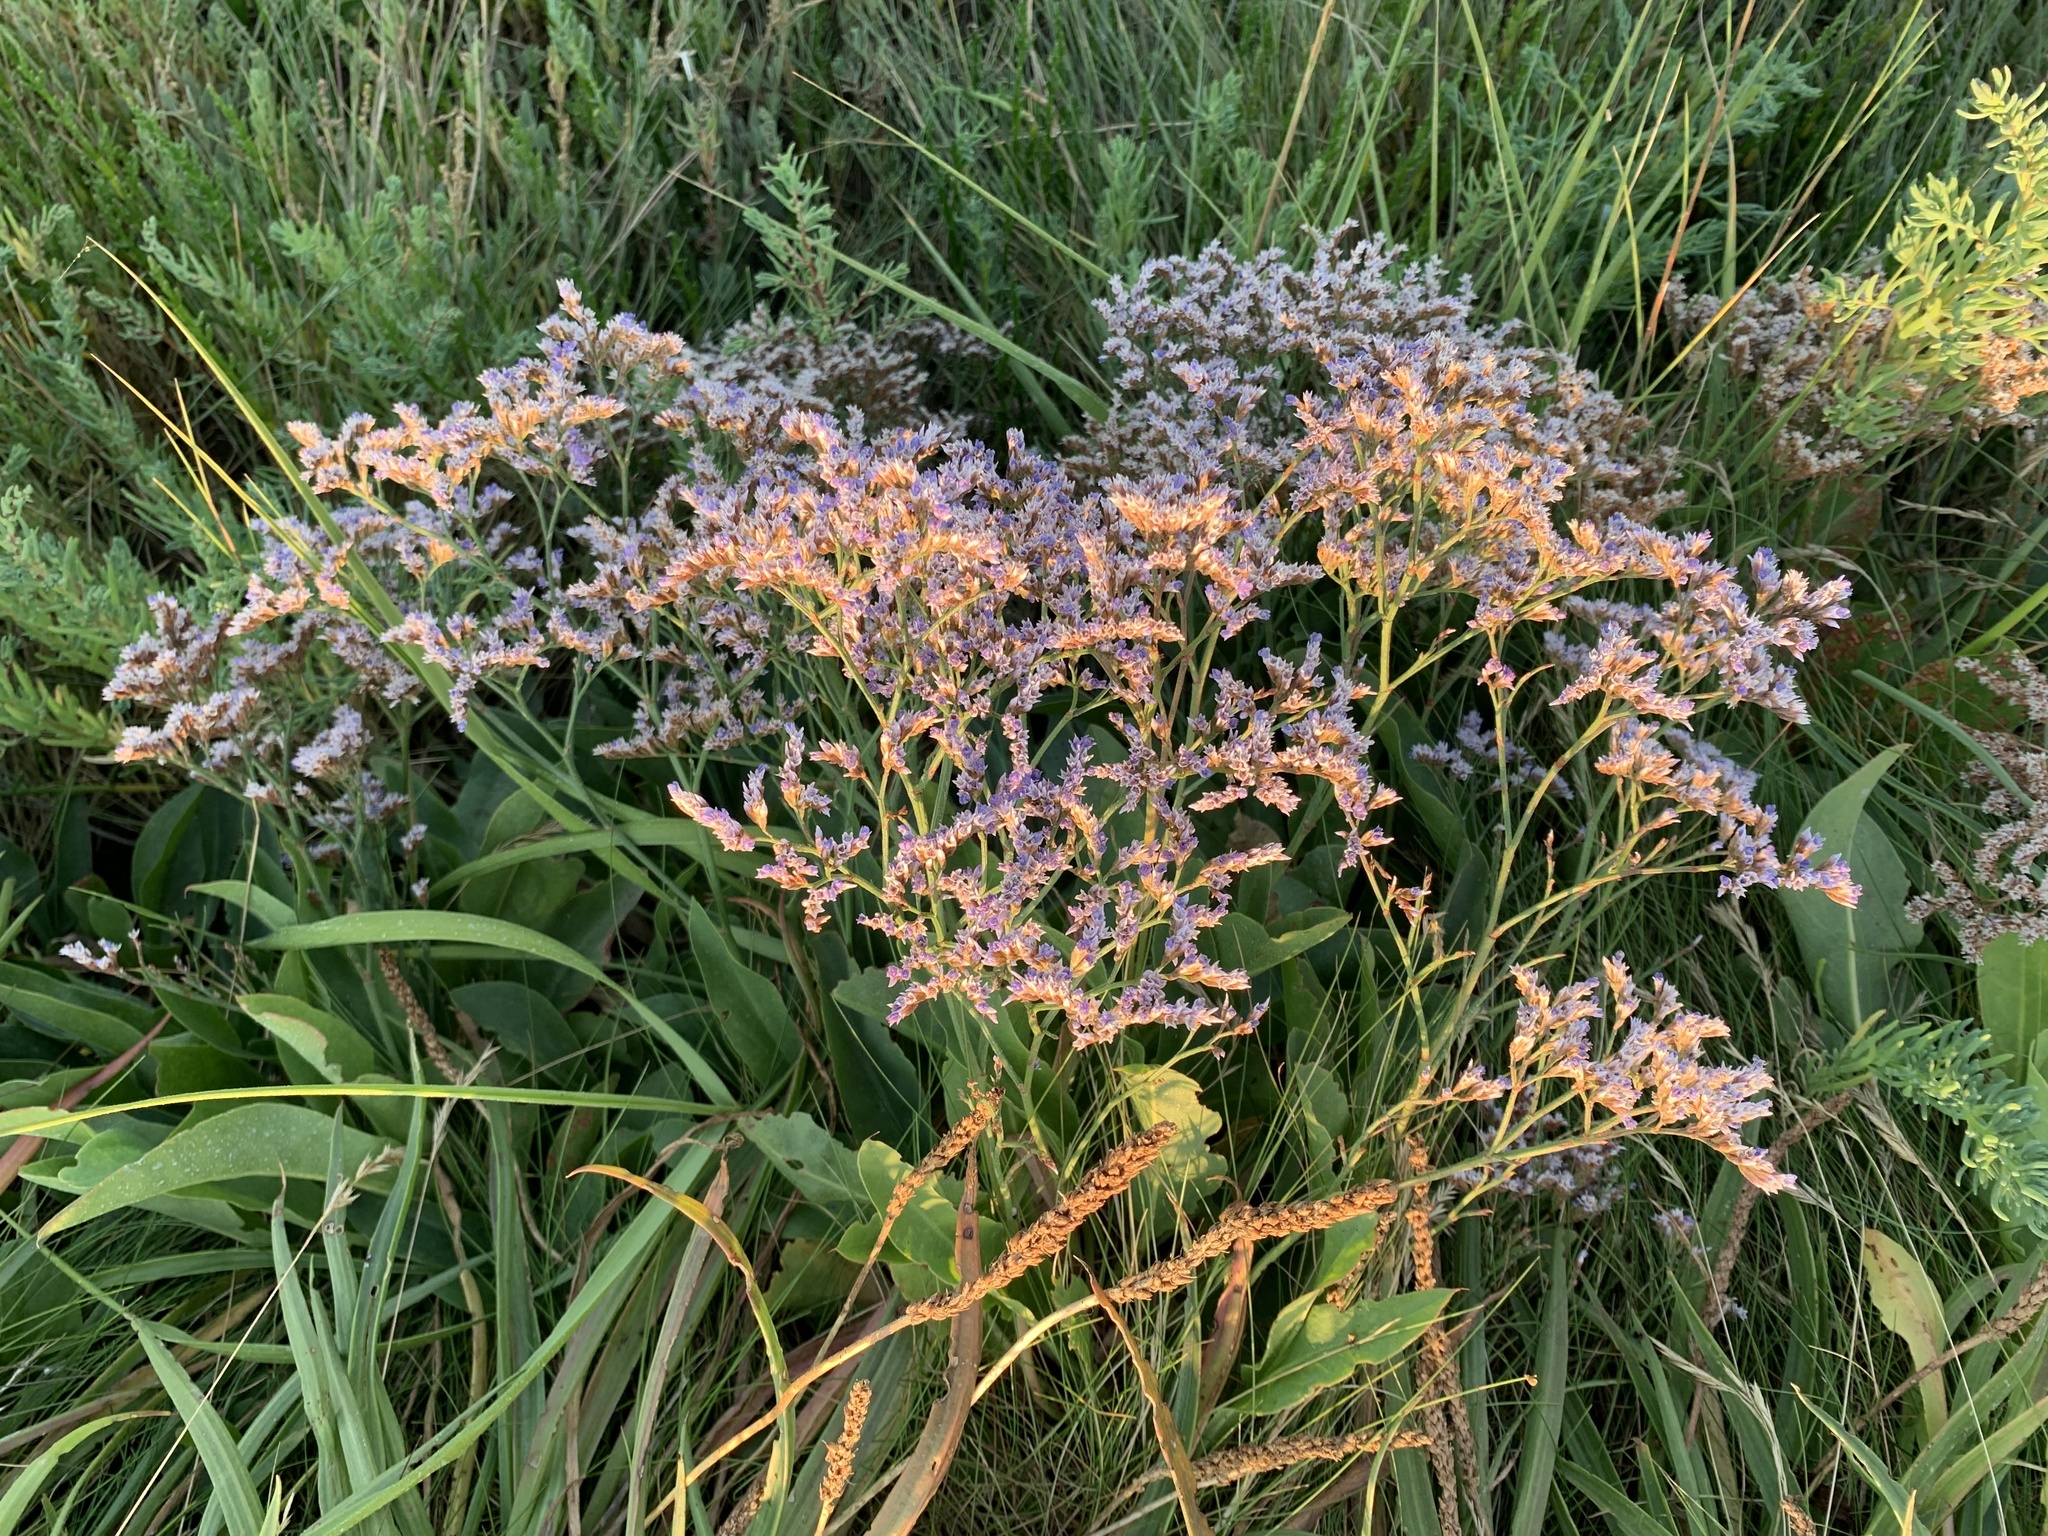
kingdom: Plantae
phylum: Tracheophyta
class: Magnoliopsida
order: Caryophyllales
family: Plumbaginaceae
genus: Limonium
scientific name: Limonium vulgare
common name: Common sea-lavender
